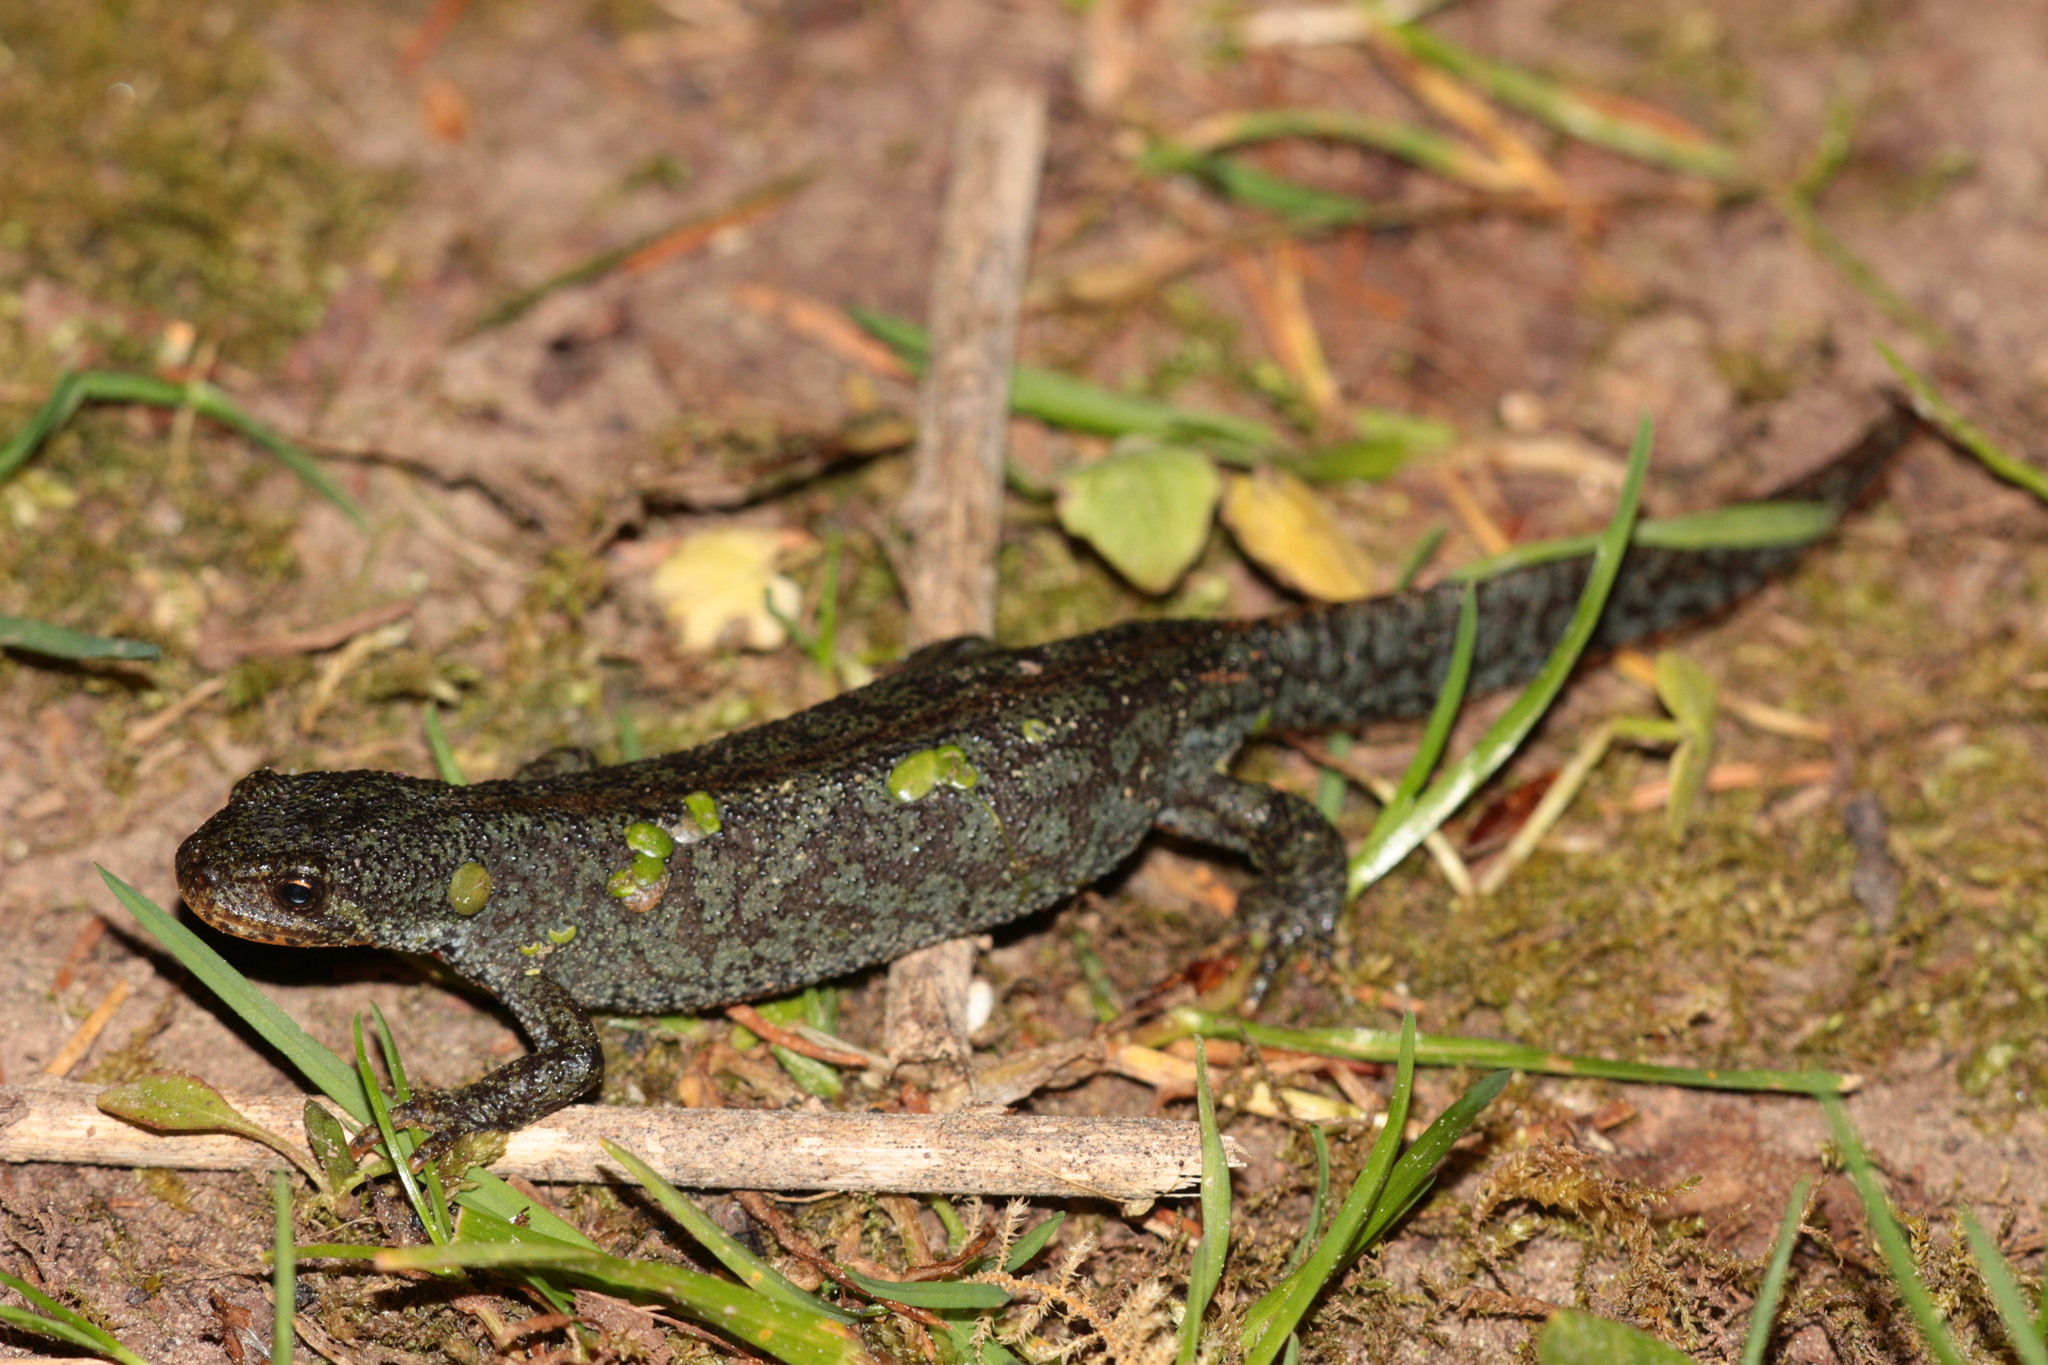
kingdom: Animalia
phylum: Chordata
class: Amphibia
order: Caudata
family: Salamandridae
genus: Ichthyosaura
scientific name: Ichthyosaura alpestris
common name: Alpine newt
